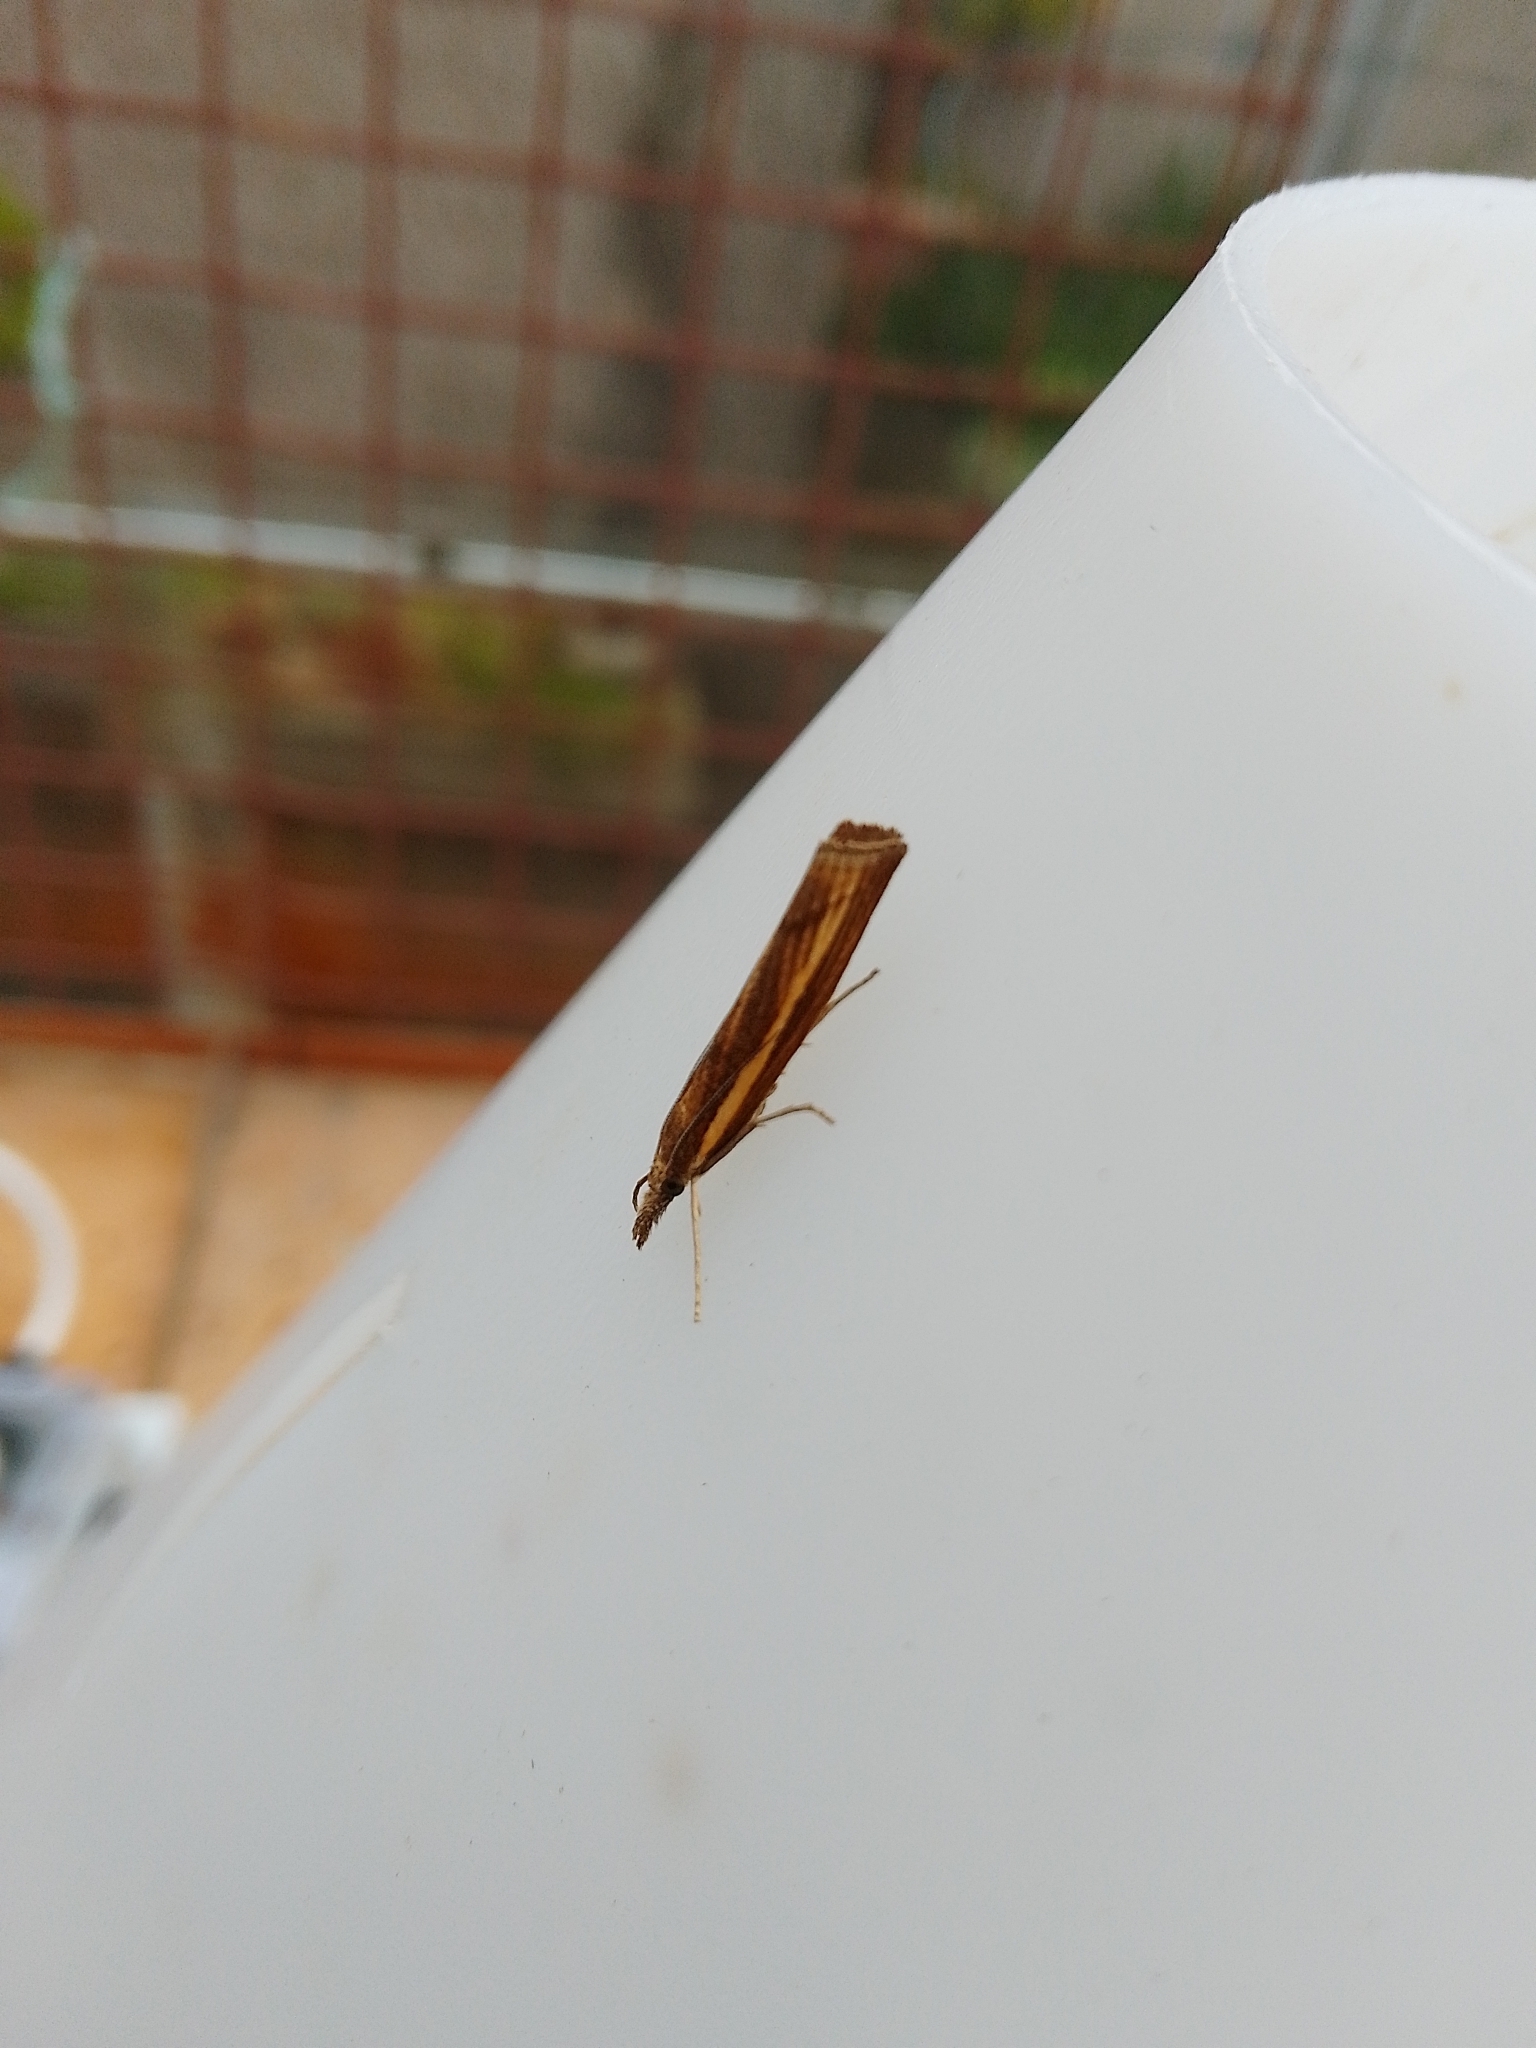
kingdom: Animalia
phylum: Arthropoda
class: Insecta
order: Lepidoptera
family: Crambidae
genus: Agriphila
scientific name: Agriphila tristellus
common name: Common grass-veneer
